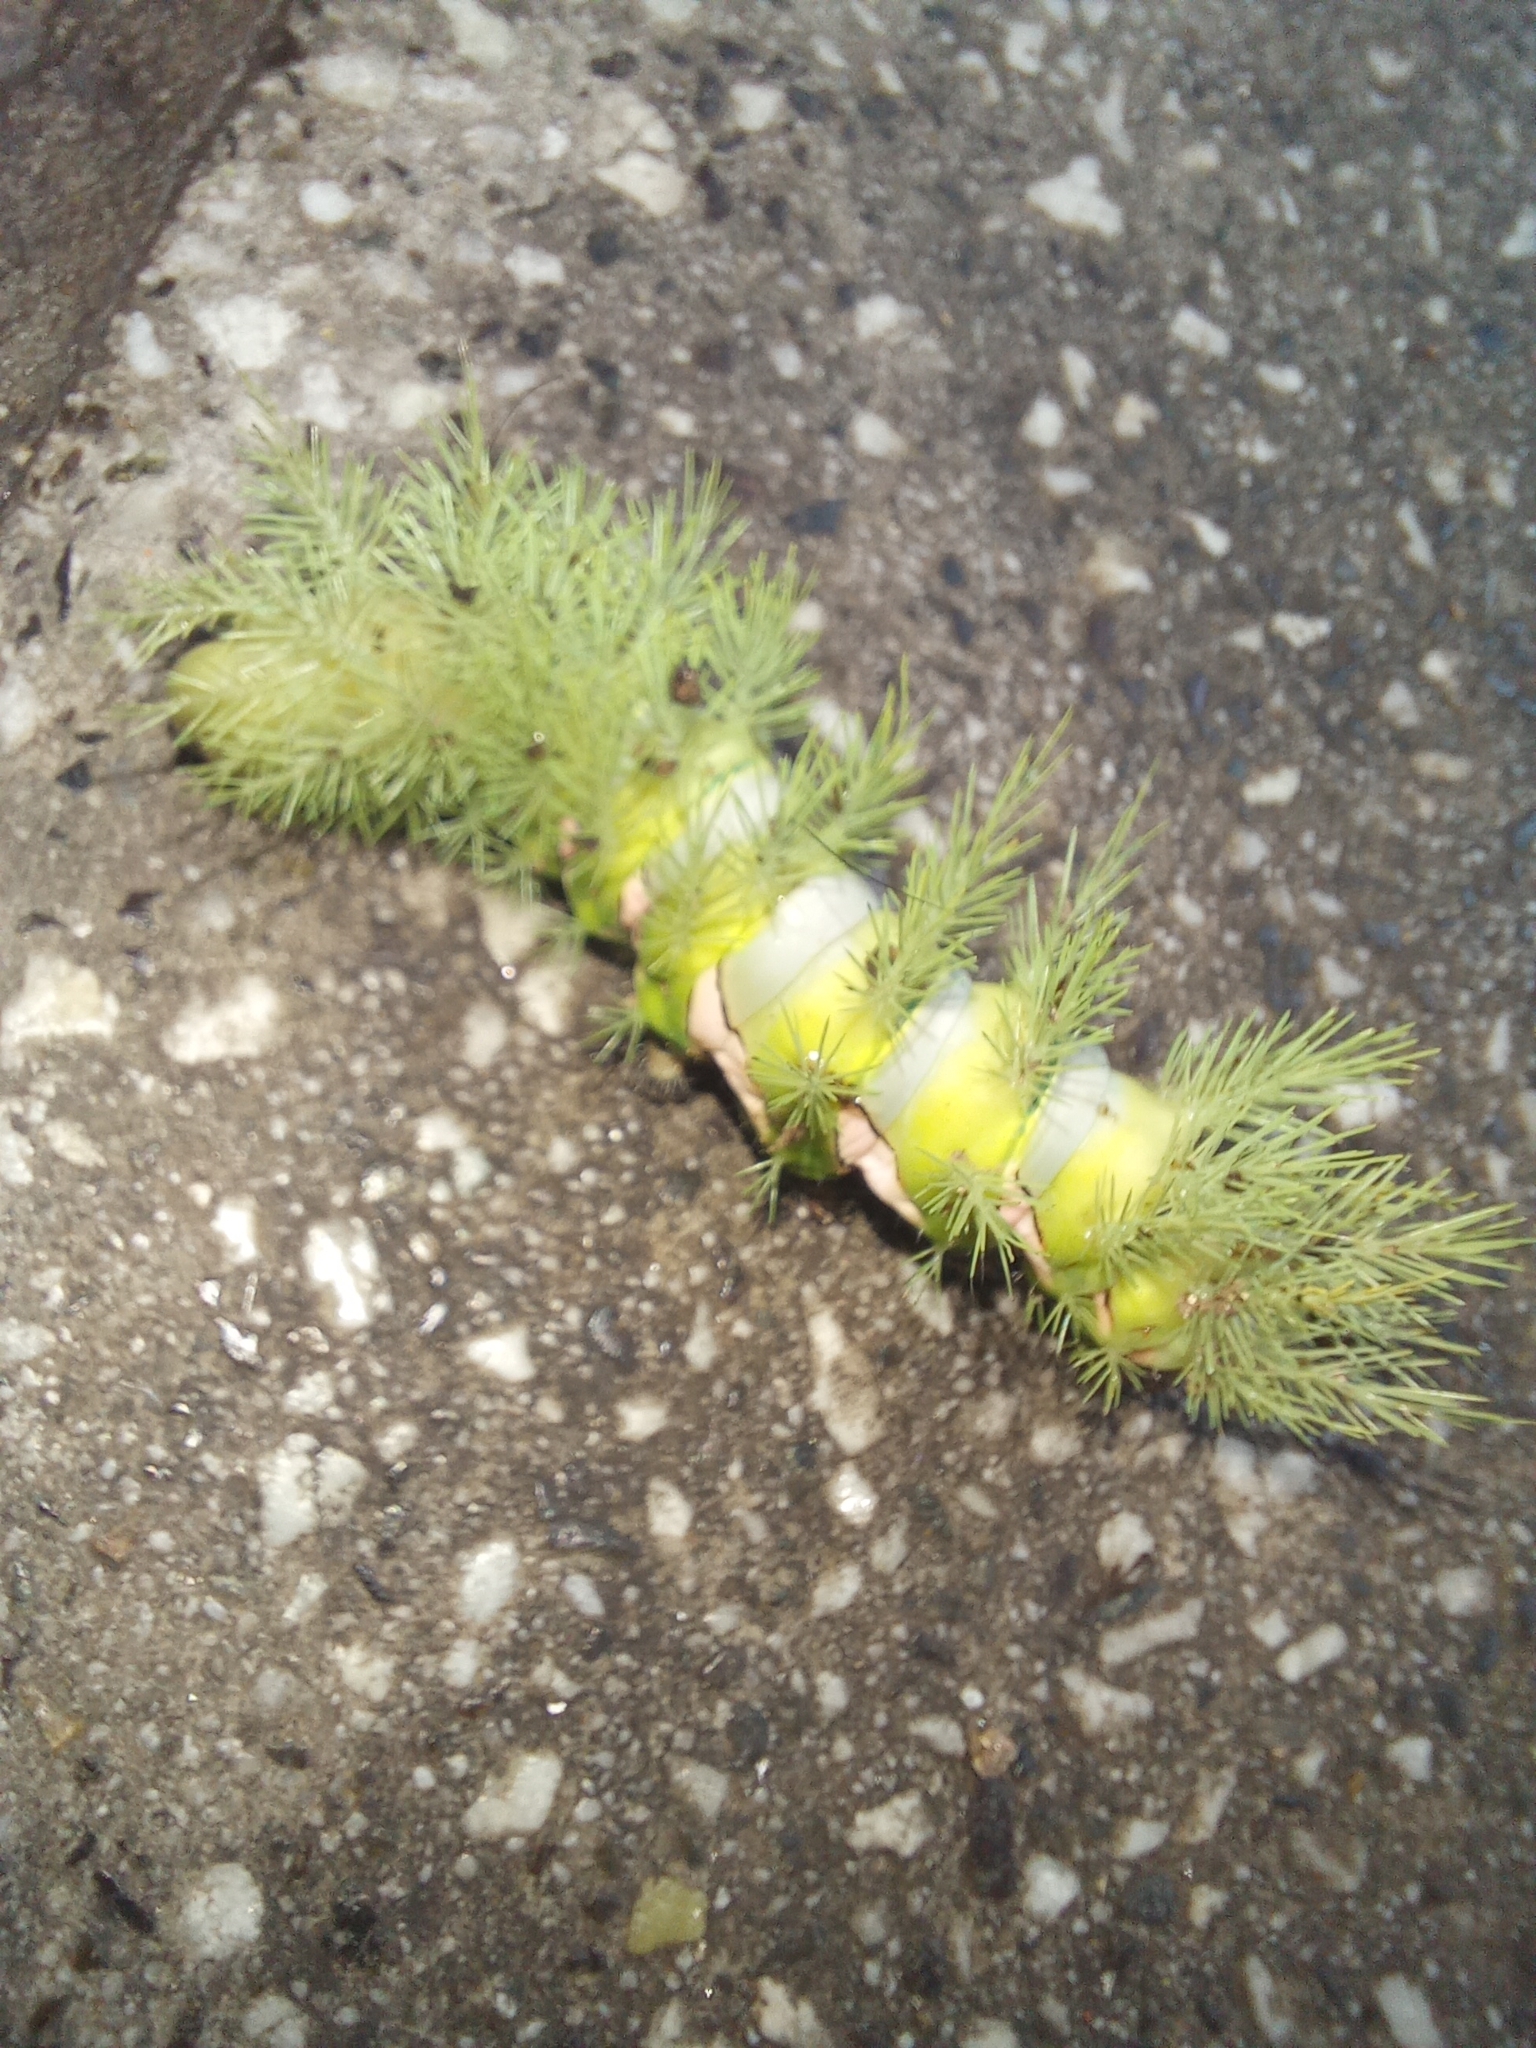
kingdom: Animalia
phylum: Arthropoda
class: Insecta
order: Lepidoptera
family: Saturniidae
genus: Automeris
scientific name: Automeris naranja
